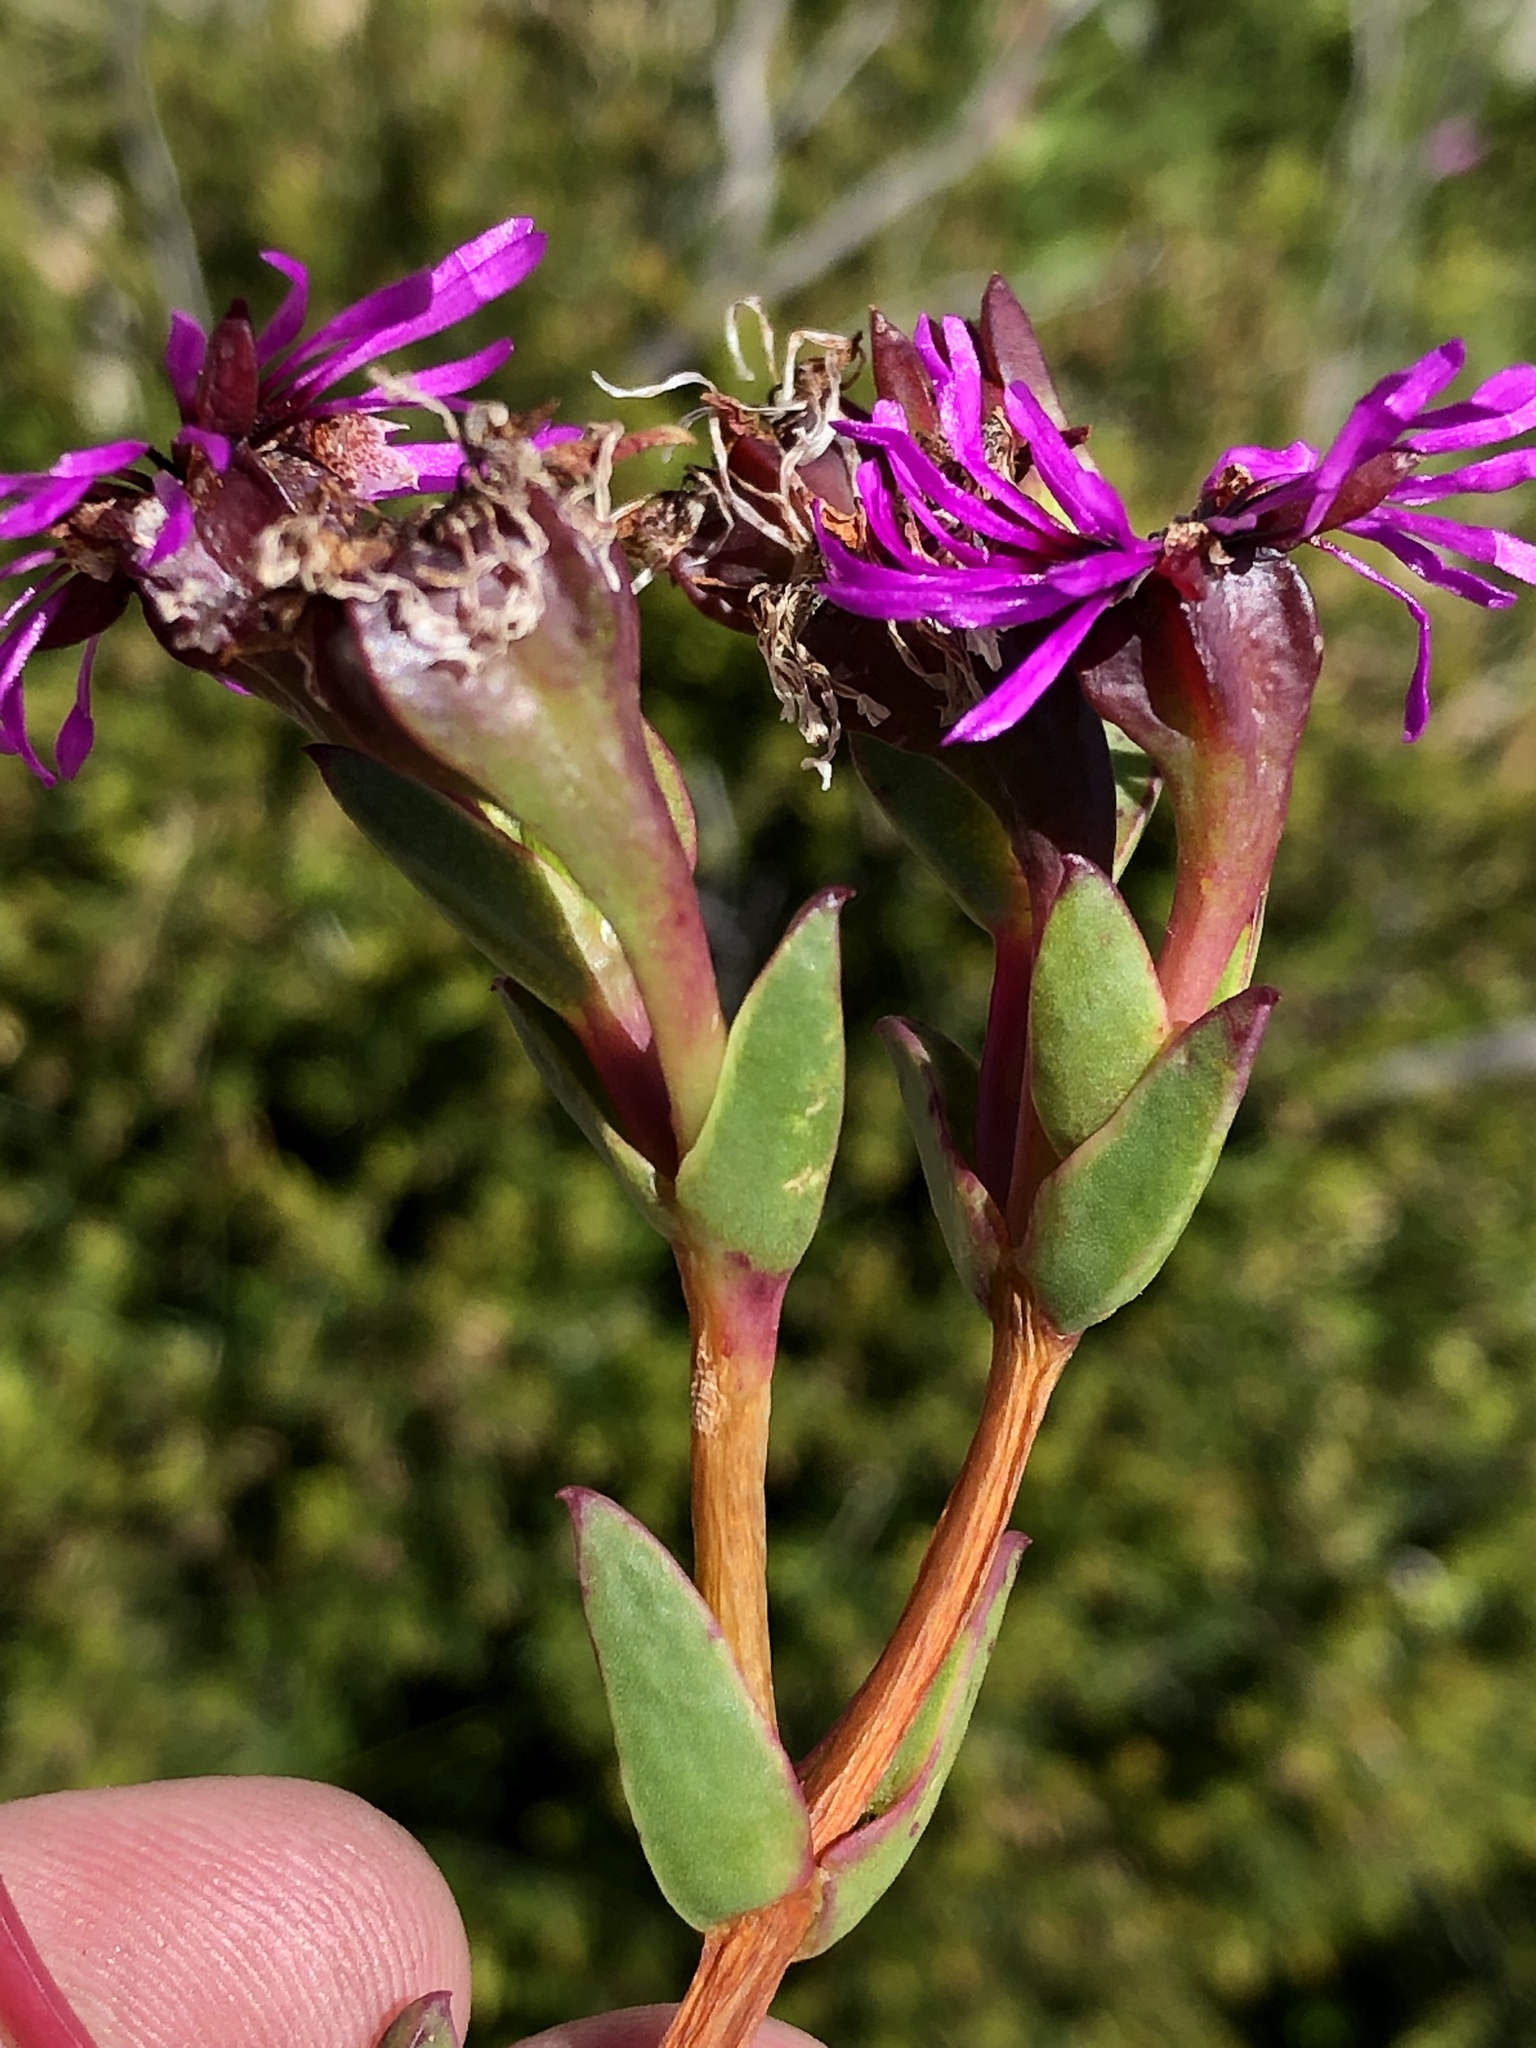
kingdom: Plantae
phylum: Tracheophyta
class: Magnoliopsida
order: Caryophyllales
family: Aizoaceae
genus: Erepsia
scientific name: Erepsia pentagona
